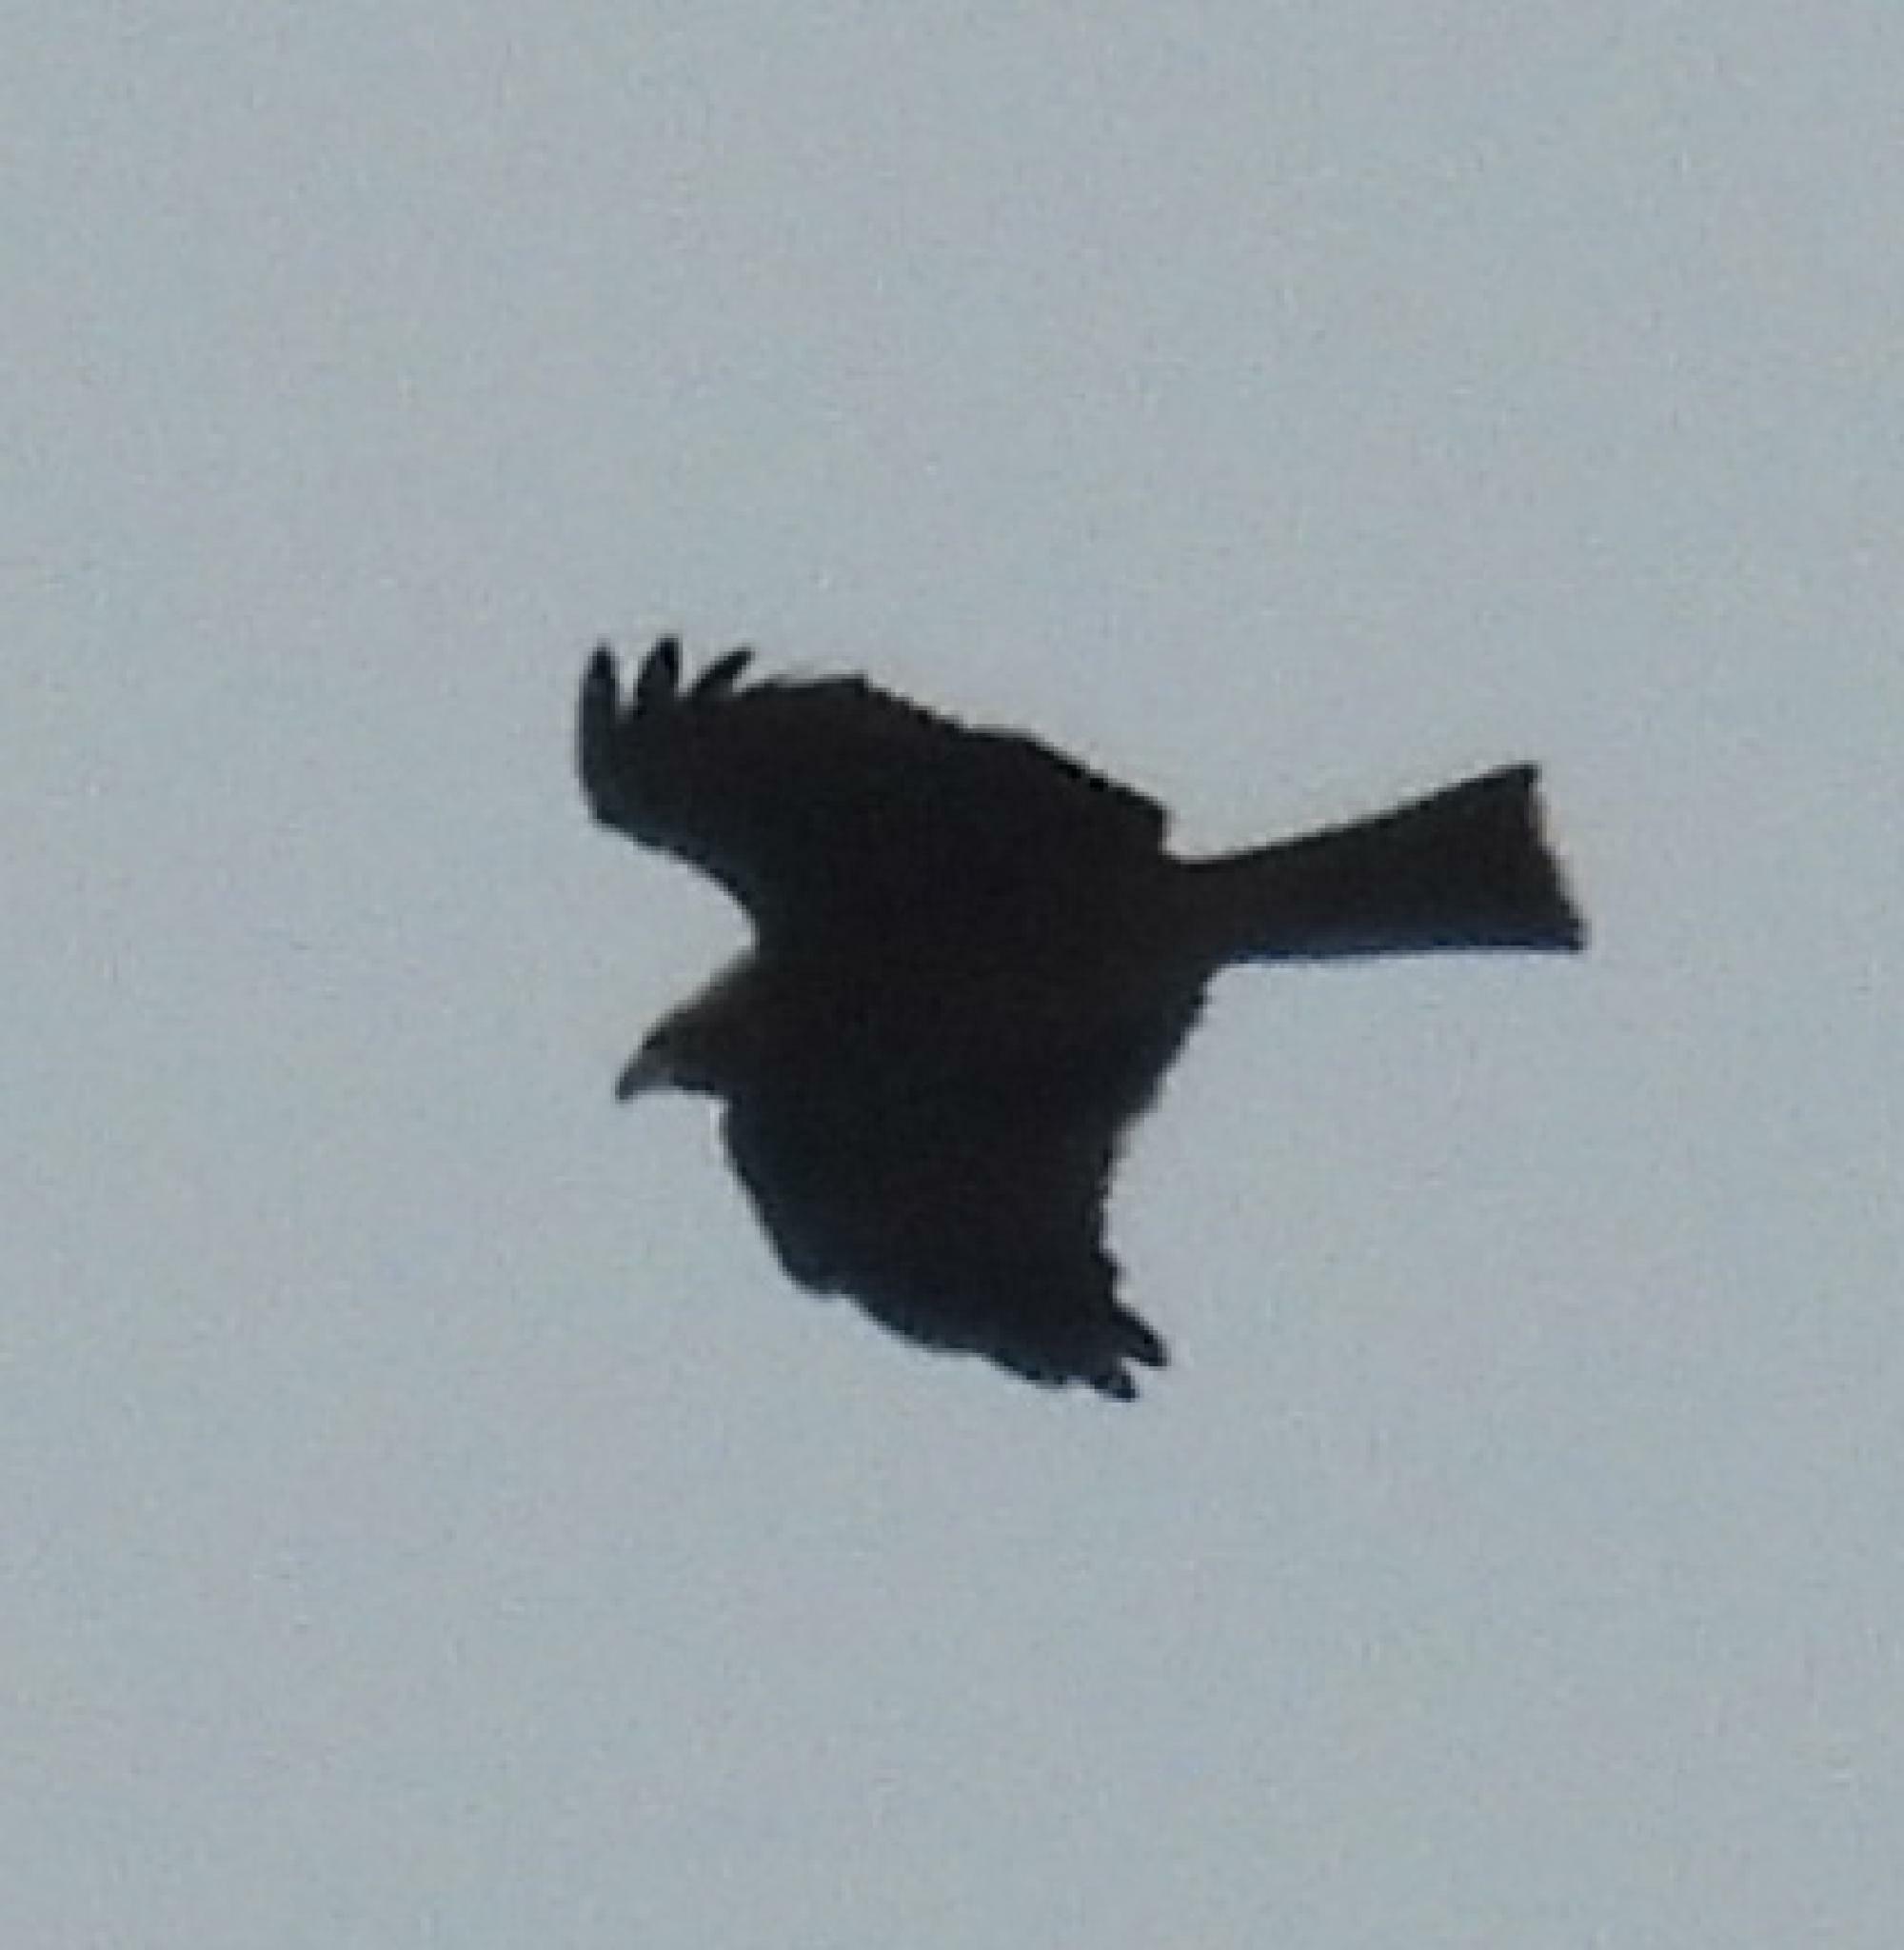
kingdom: Animalia
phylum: Chordata
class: Aves
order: Accipitriformes
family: Accipitridae
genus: Milvus
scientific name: Milvus migrans
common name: Black kite
